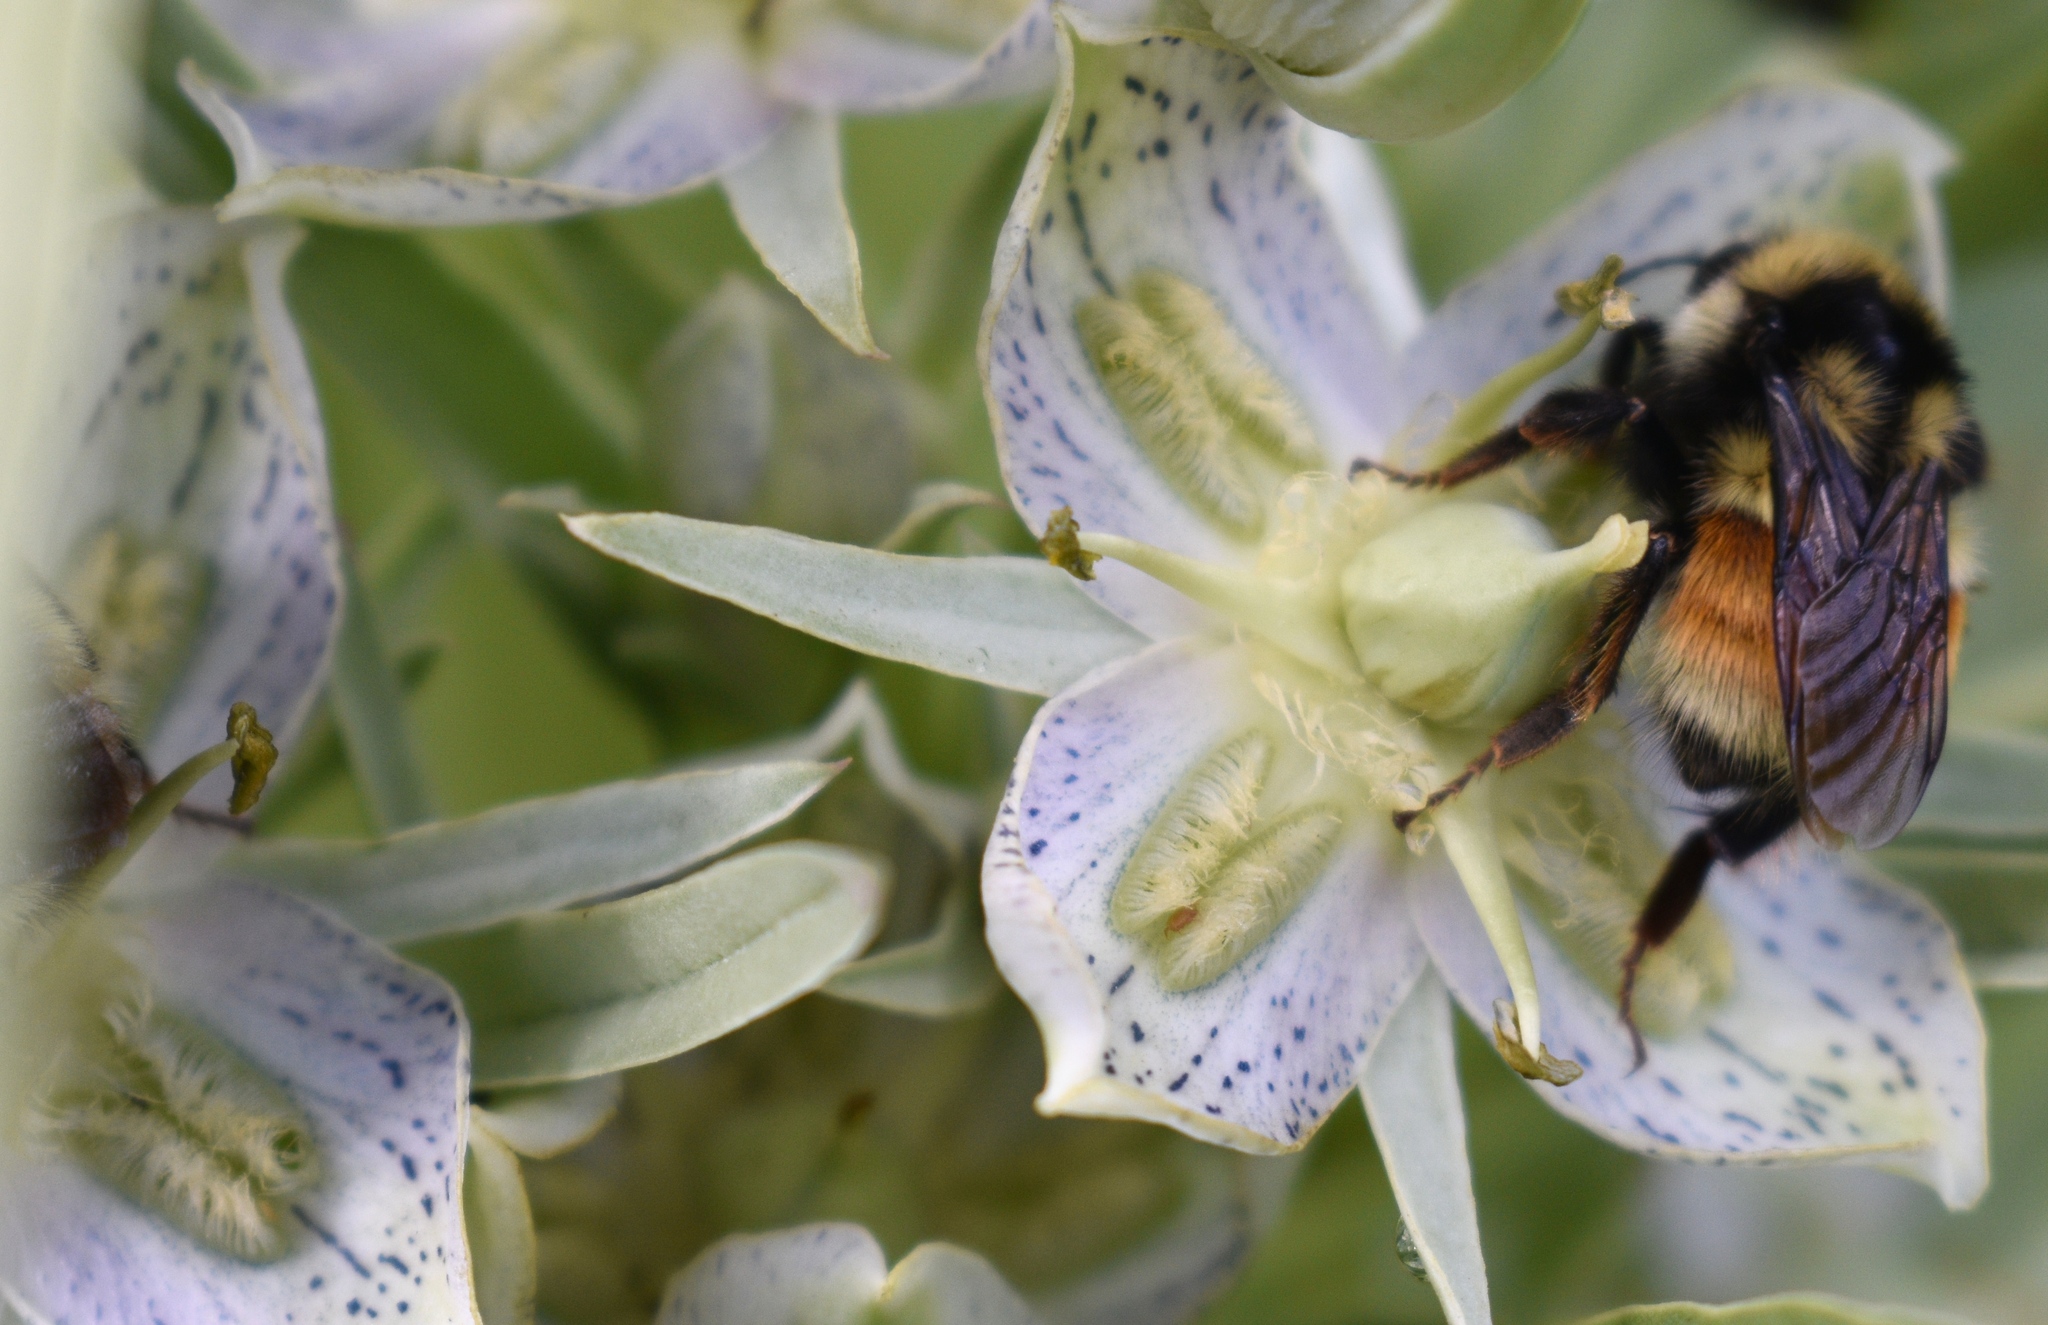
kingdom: Animalia
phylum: Arthropoda
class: Insecta
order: Hymenoptera
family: Apidae
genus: Bombus
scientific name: Bombus bifarius
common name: Two form bumble bee
